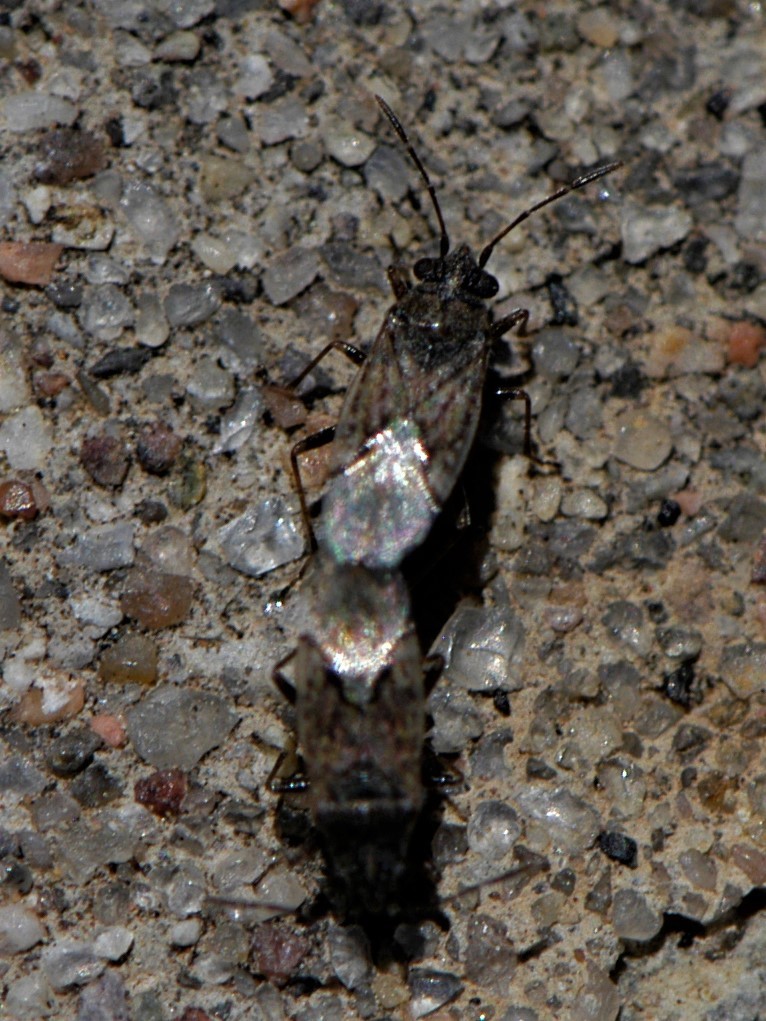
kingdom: Animalia
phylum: Arthropoda
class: Insecta
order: Hemiptera
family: Lygaeidae
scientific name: Lygaeidae
